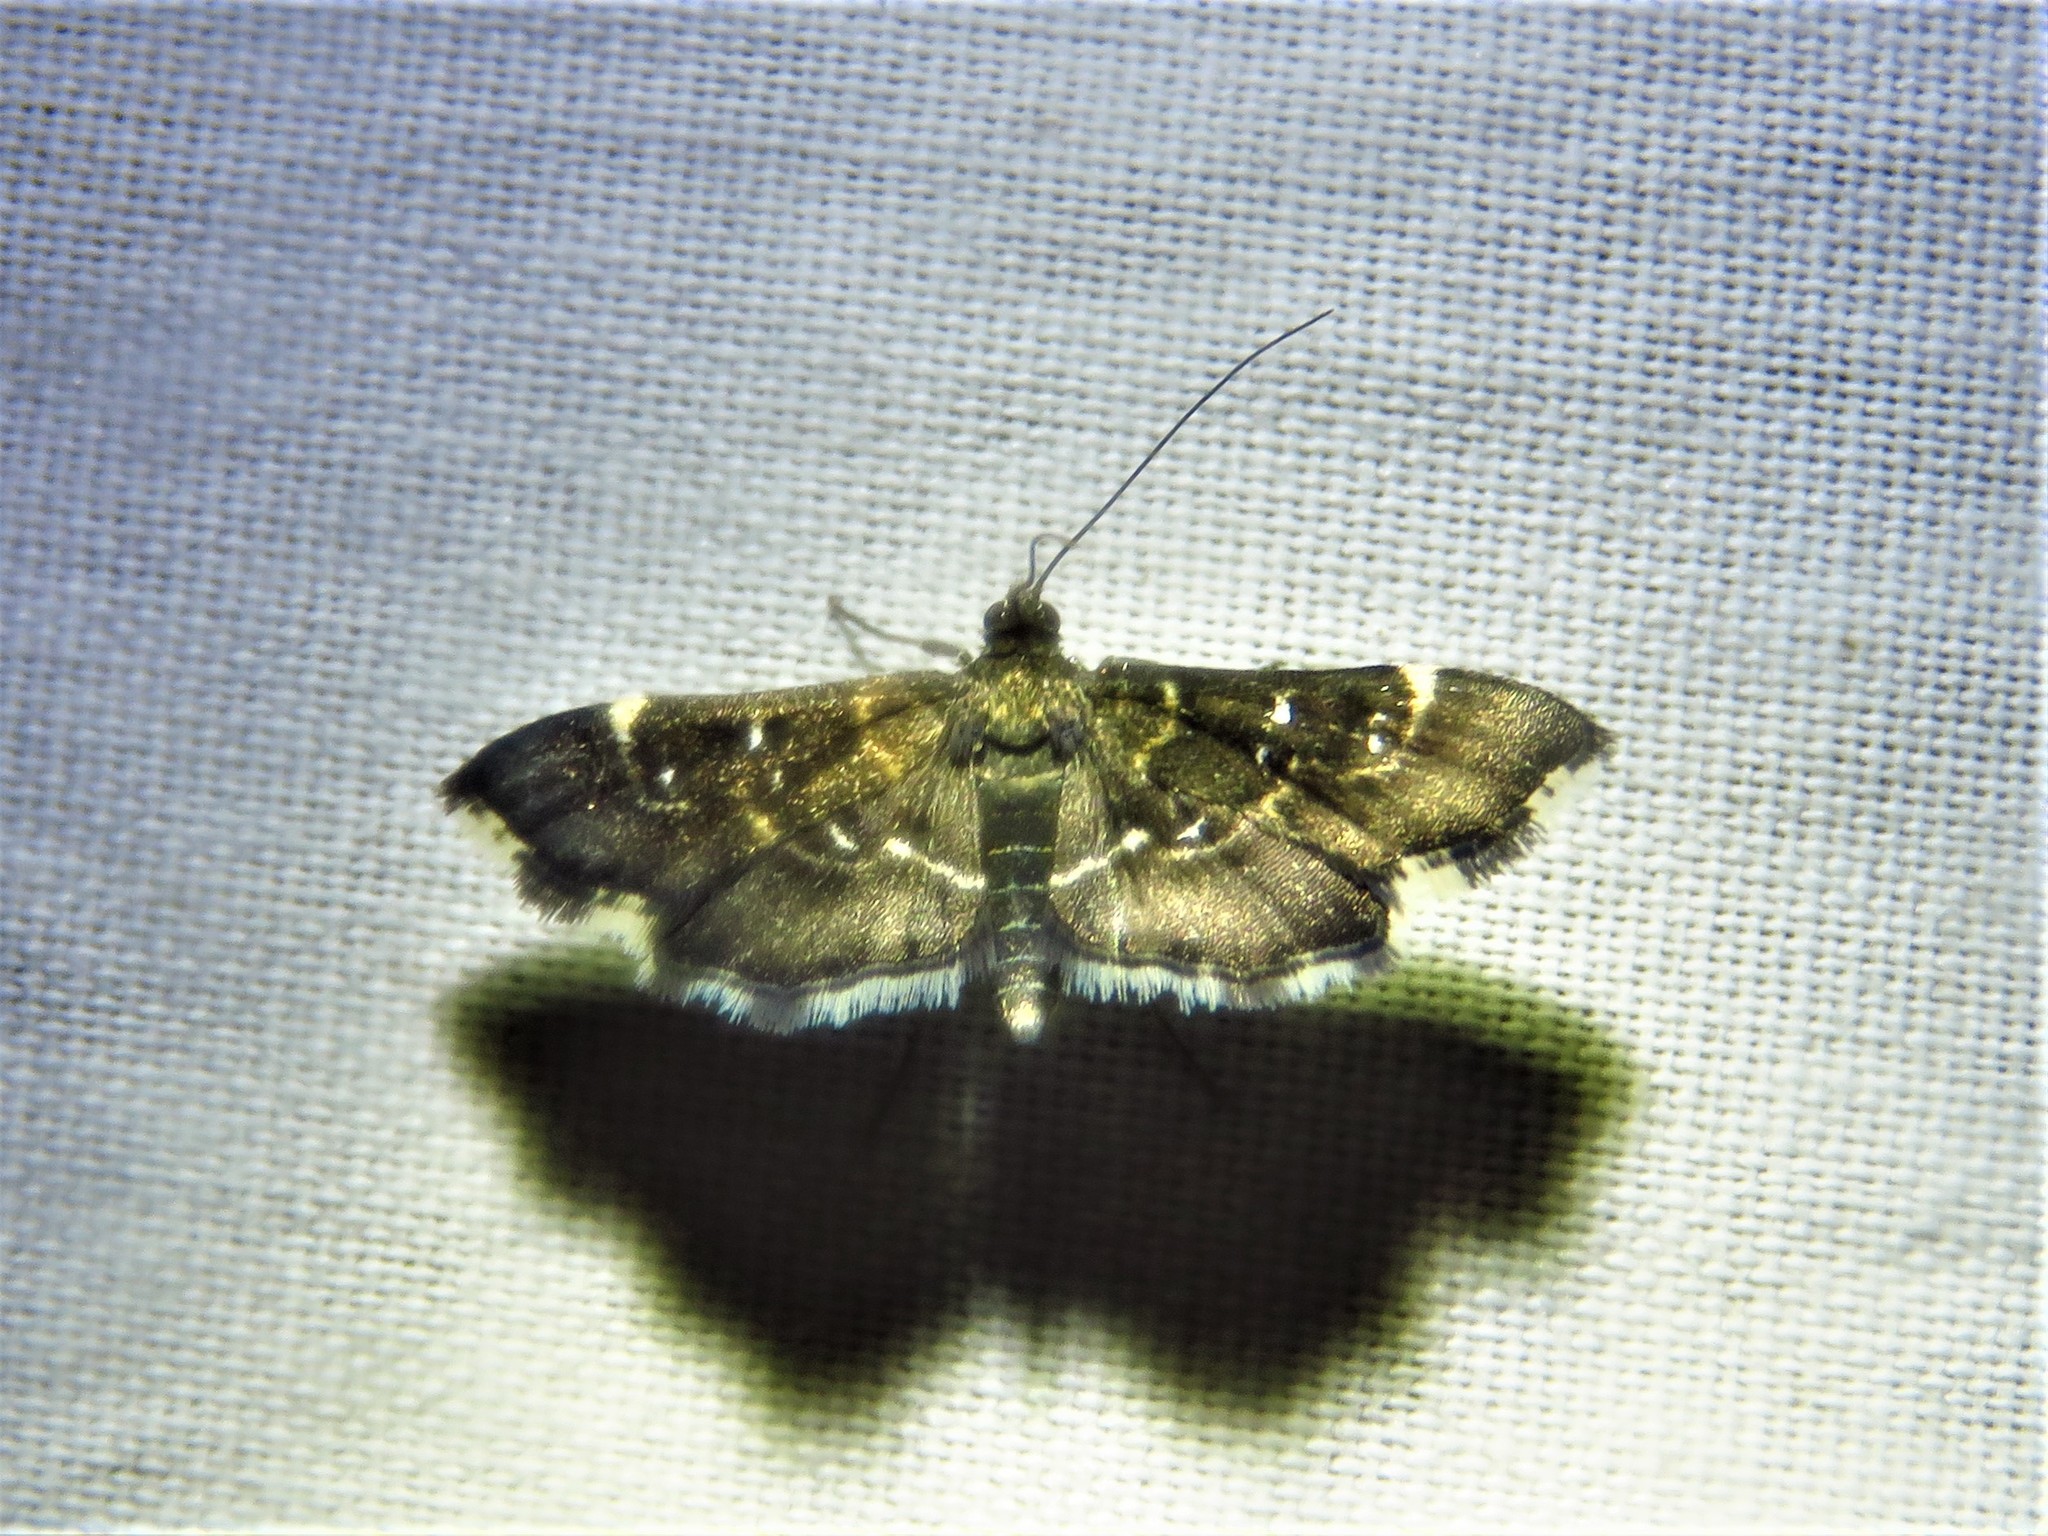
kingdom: Animalia
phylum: Arthropoda
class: Insecta
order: Lepidoptera
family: Crambidae
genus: Diathrausta
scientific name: Diathrausta harlequinalis
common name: Harlequin webworm moth
